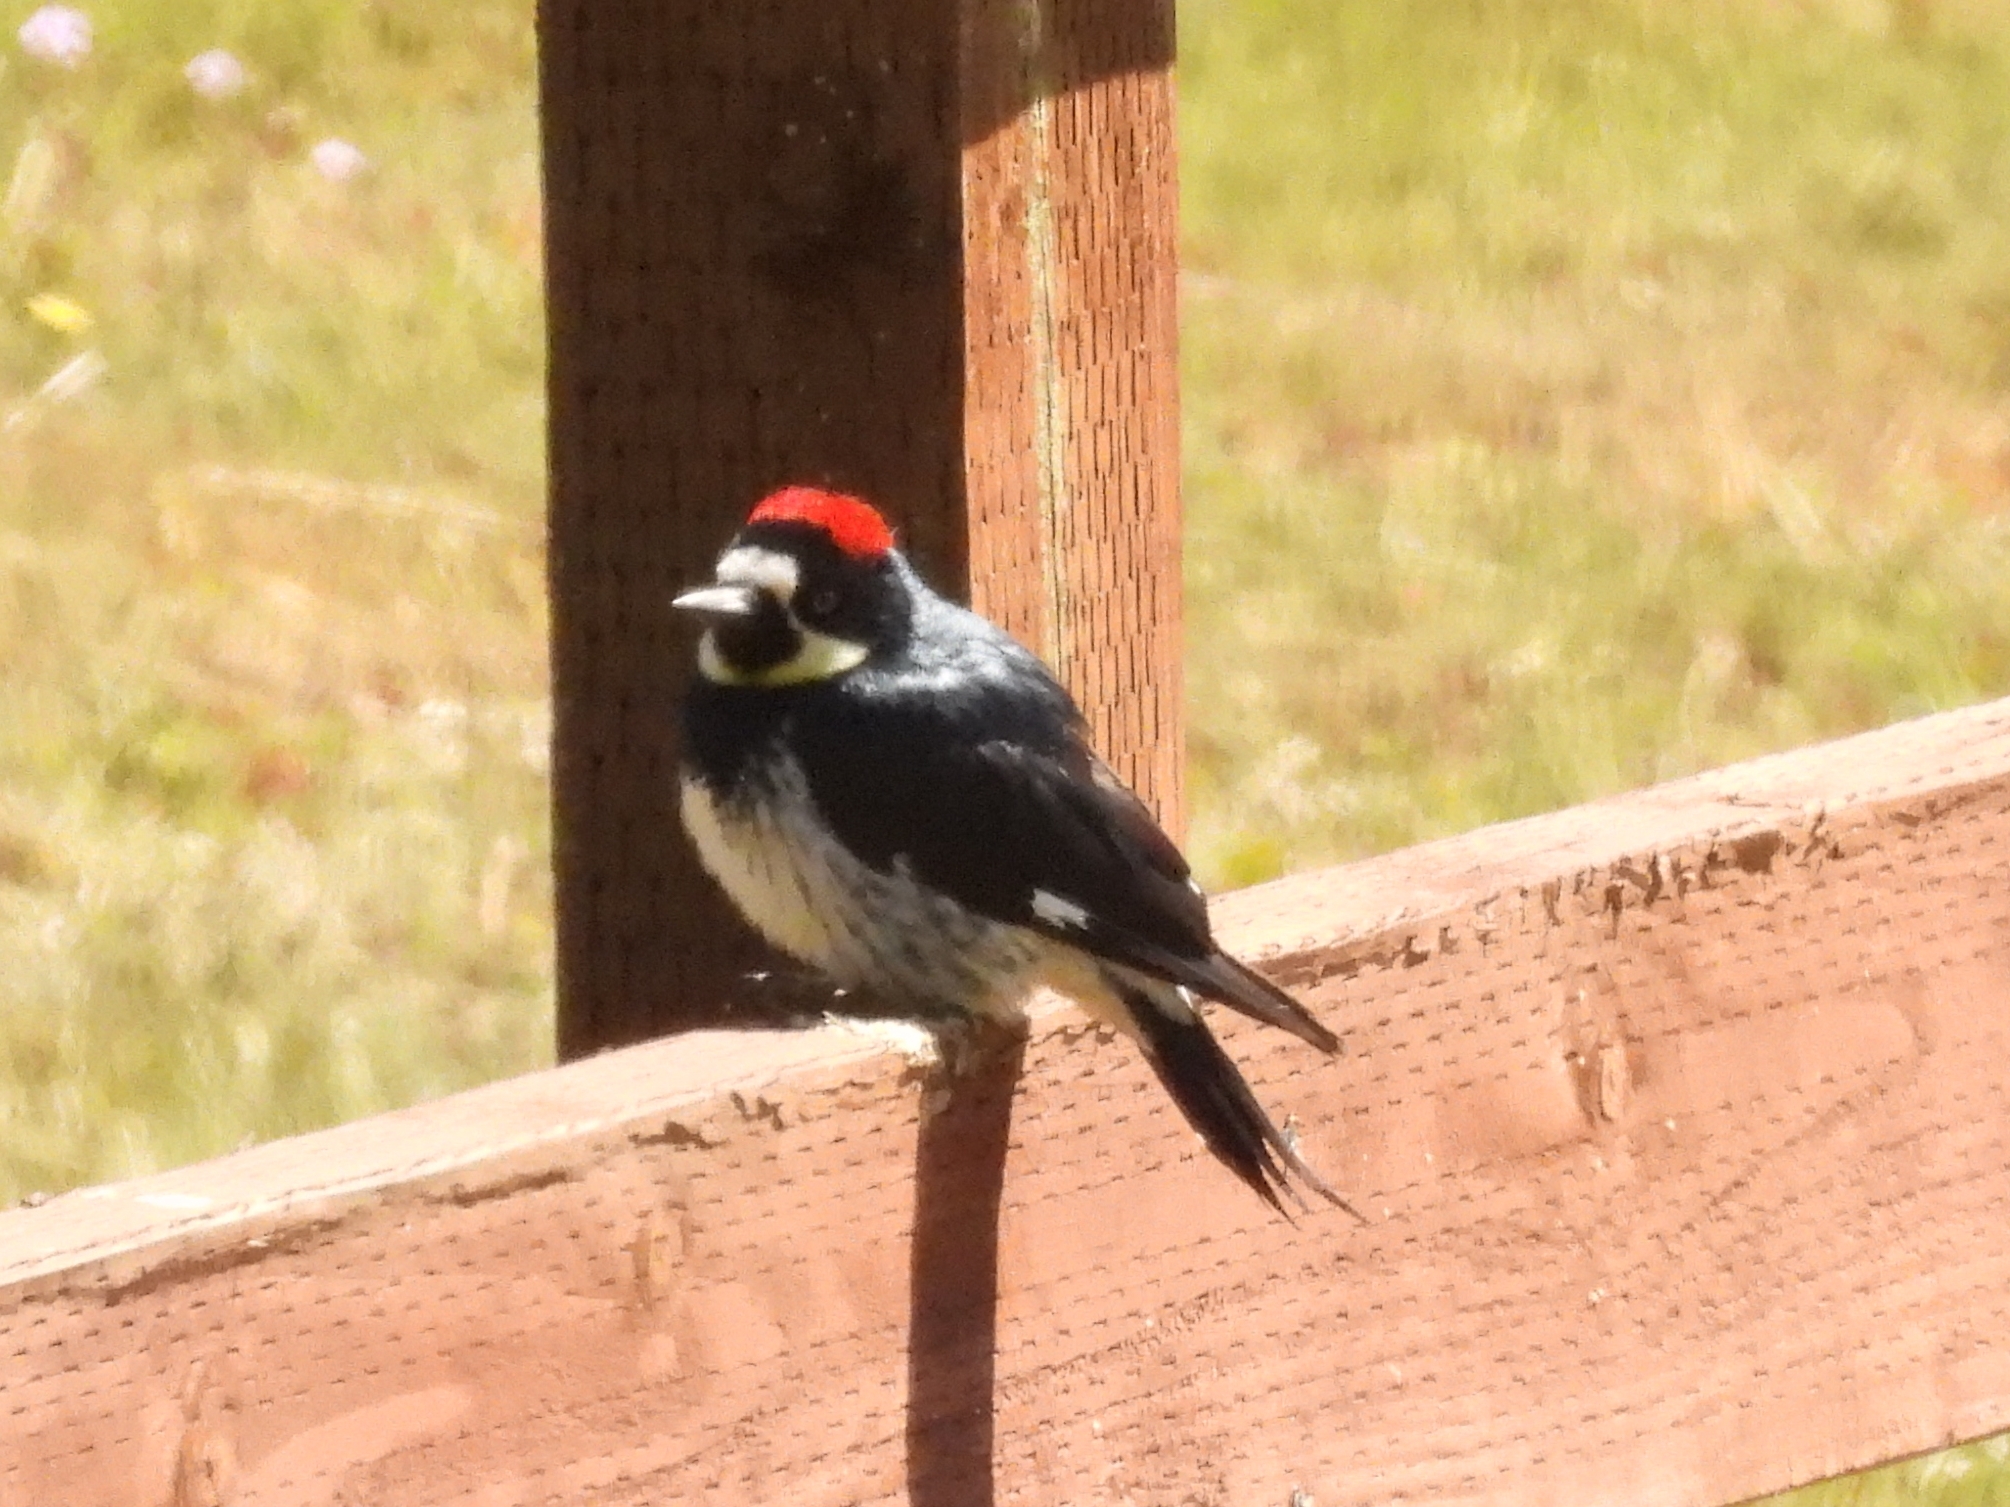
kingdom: Animalia
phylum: Chordata
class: Aves
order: Piciformes
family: Picidae
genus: Melanerpes
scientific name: Melanerpes formicivorus
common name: Acorn woodpecker
